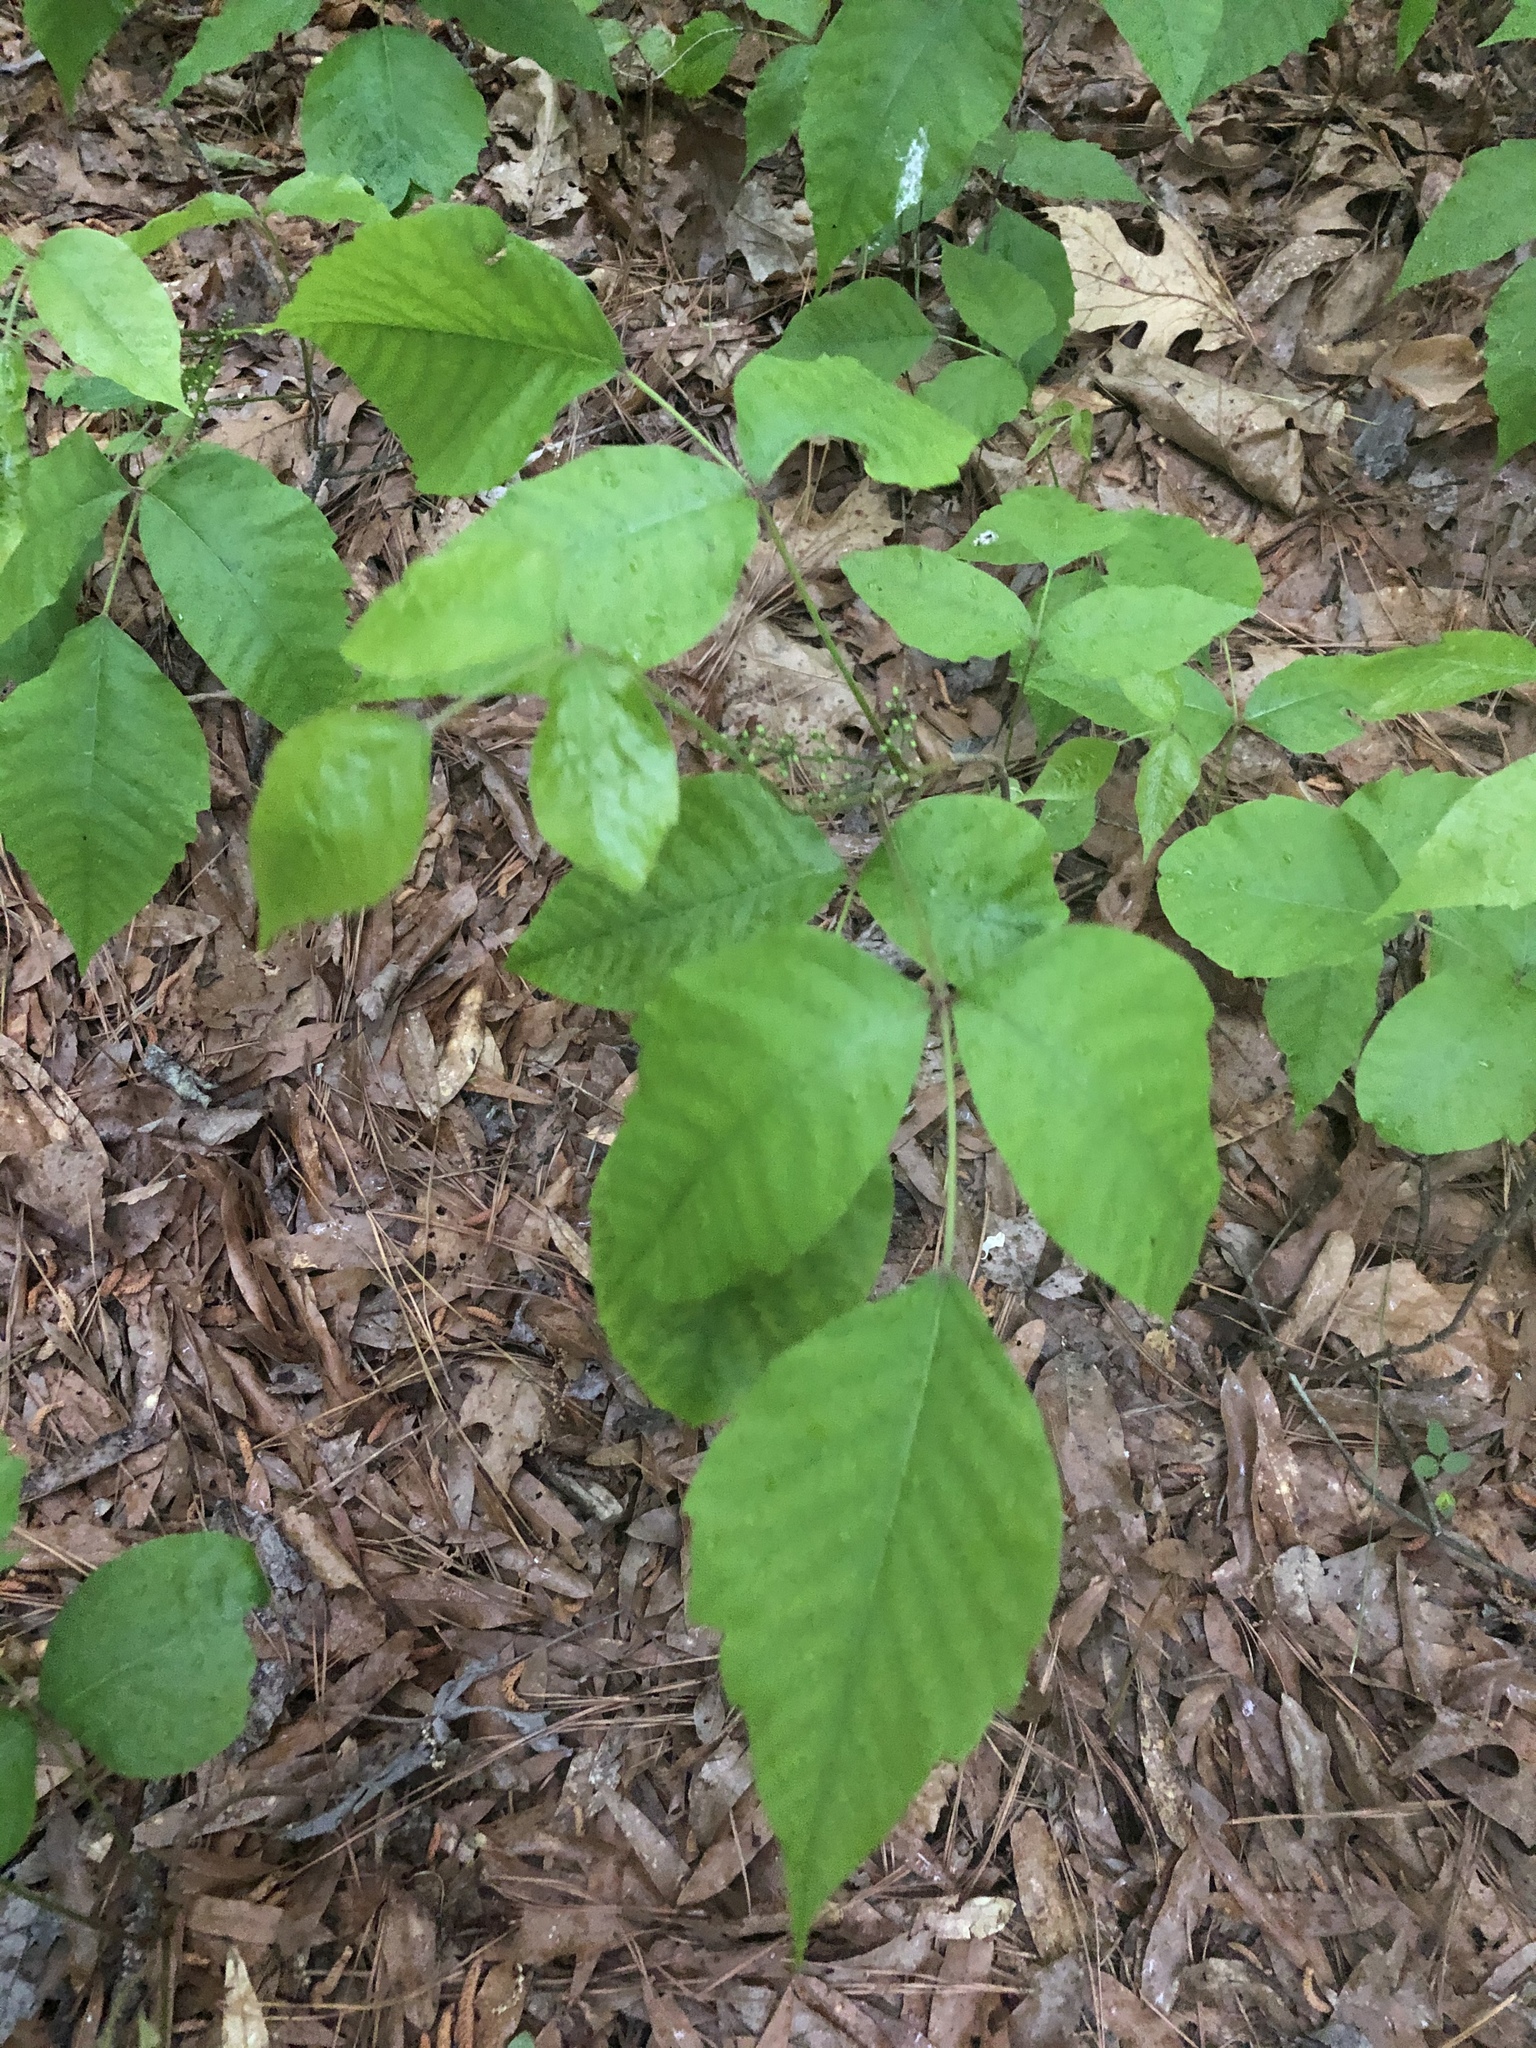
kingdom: Plantae
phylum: Tracheophyta
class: Magnoliopsida
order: Sapindales
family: Anacardiaceae
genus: Toxicodendron
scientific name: Toxicodendron radicans
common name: Poison ivy
